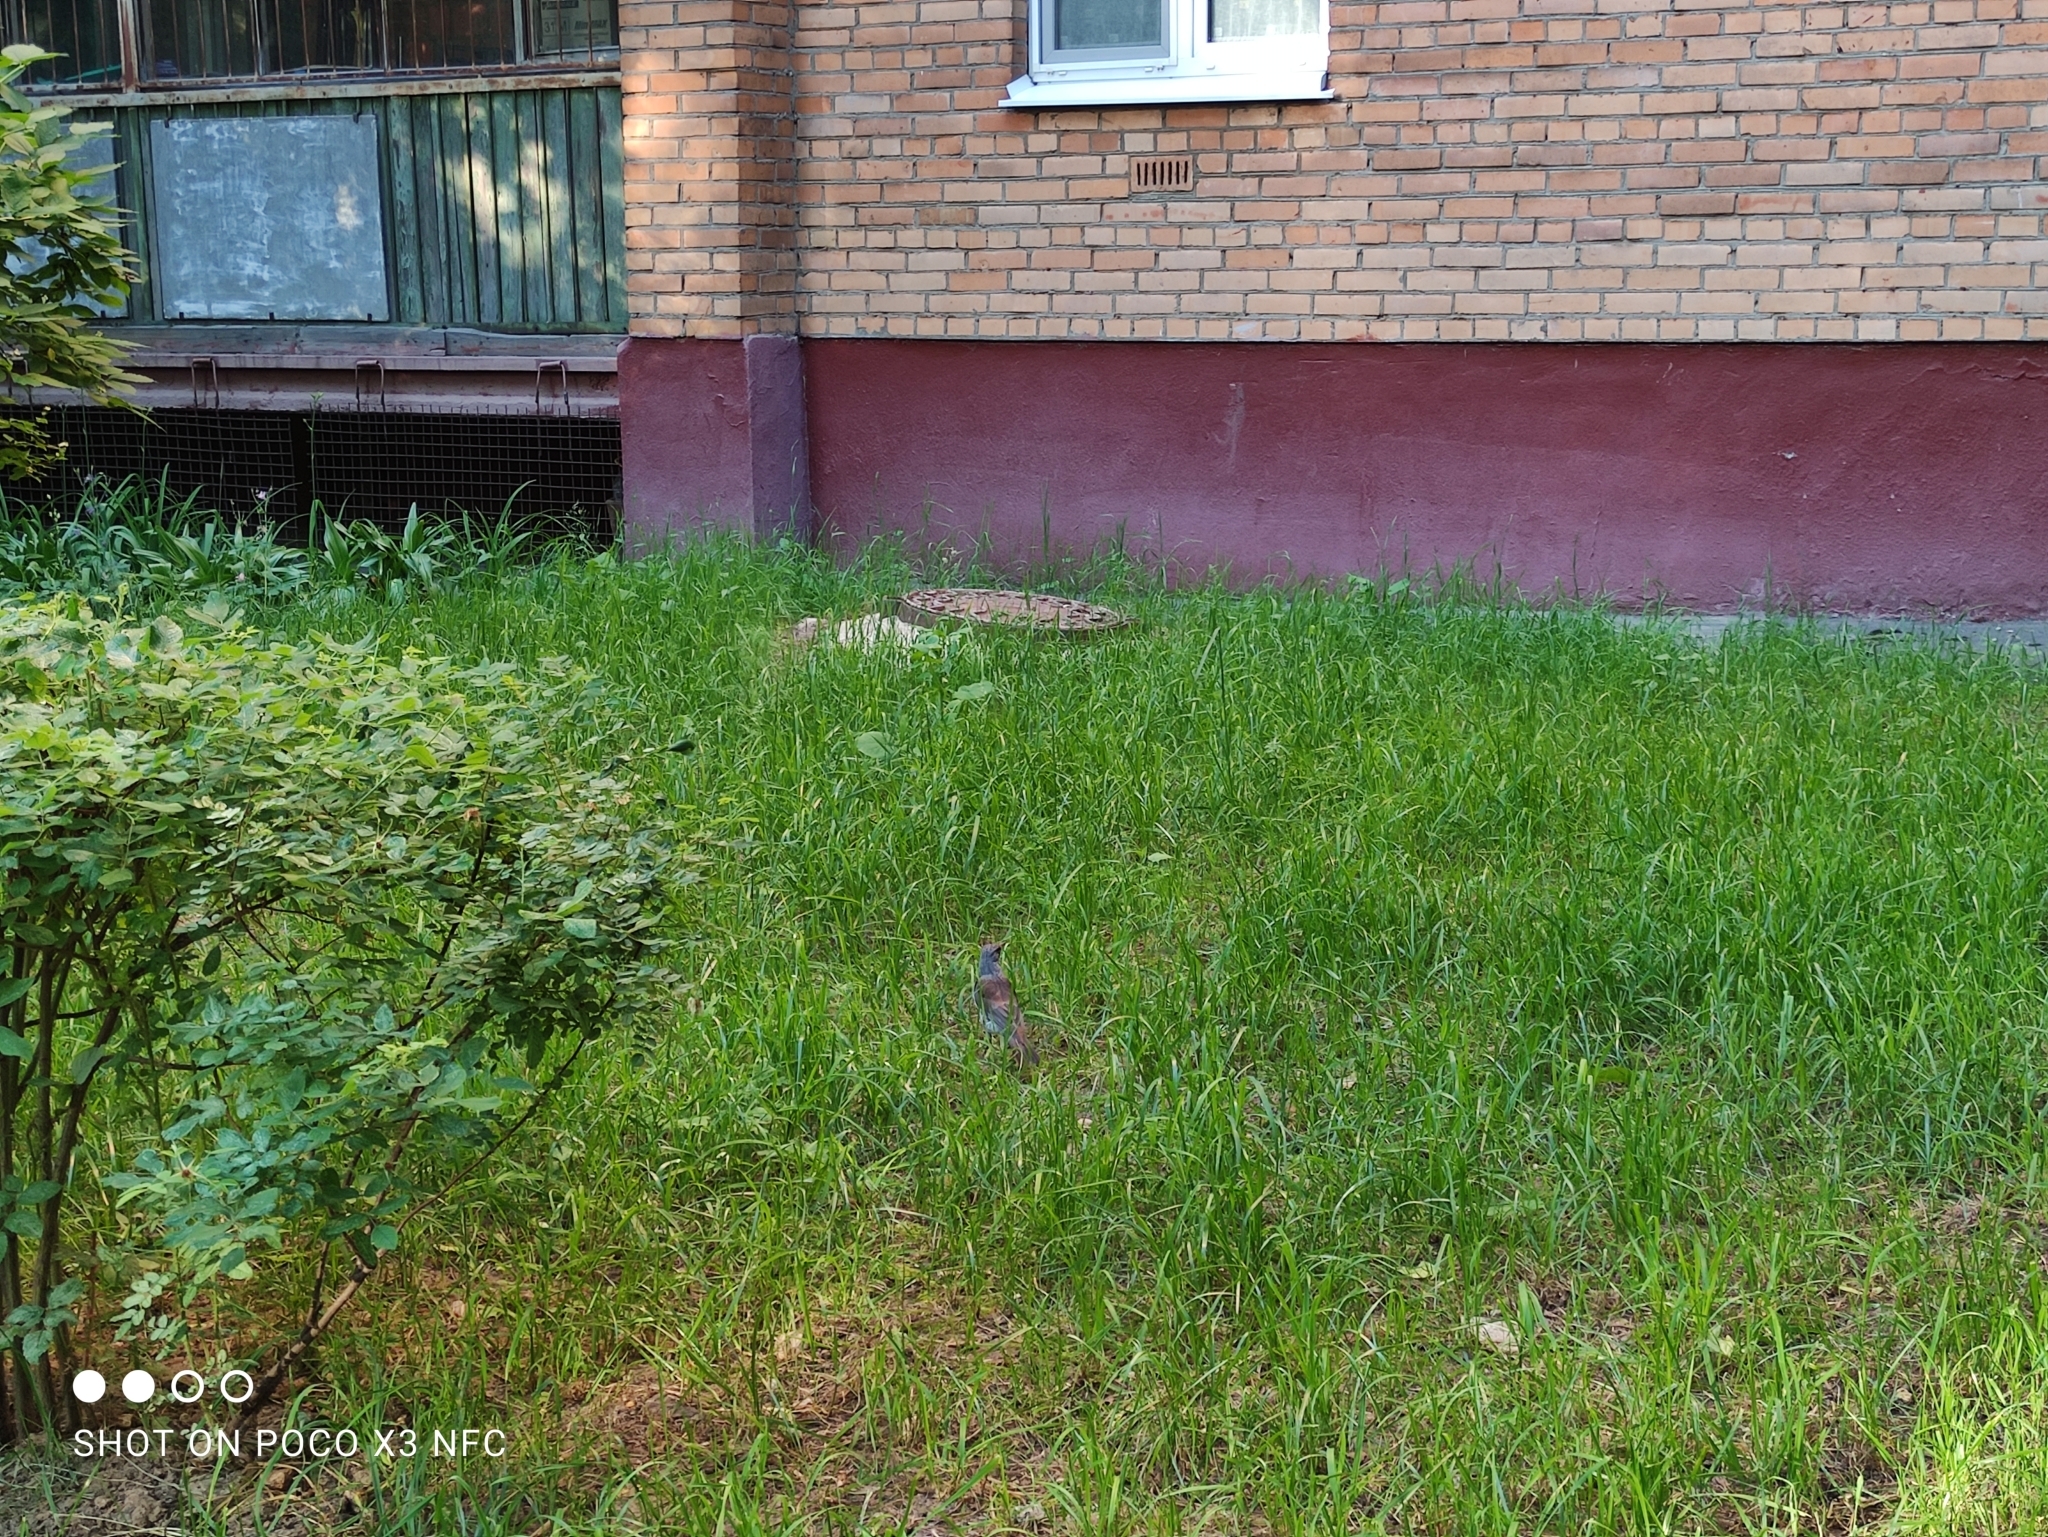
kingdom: Animalia
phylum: Chordata
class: Aves
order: Passeriformes
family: Turdidae
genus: Turdus
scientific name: Turdus pilaris
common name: Fieldfare
